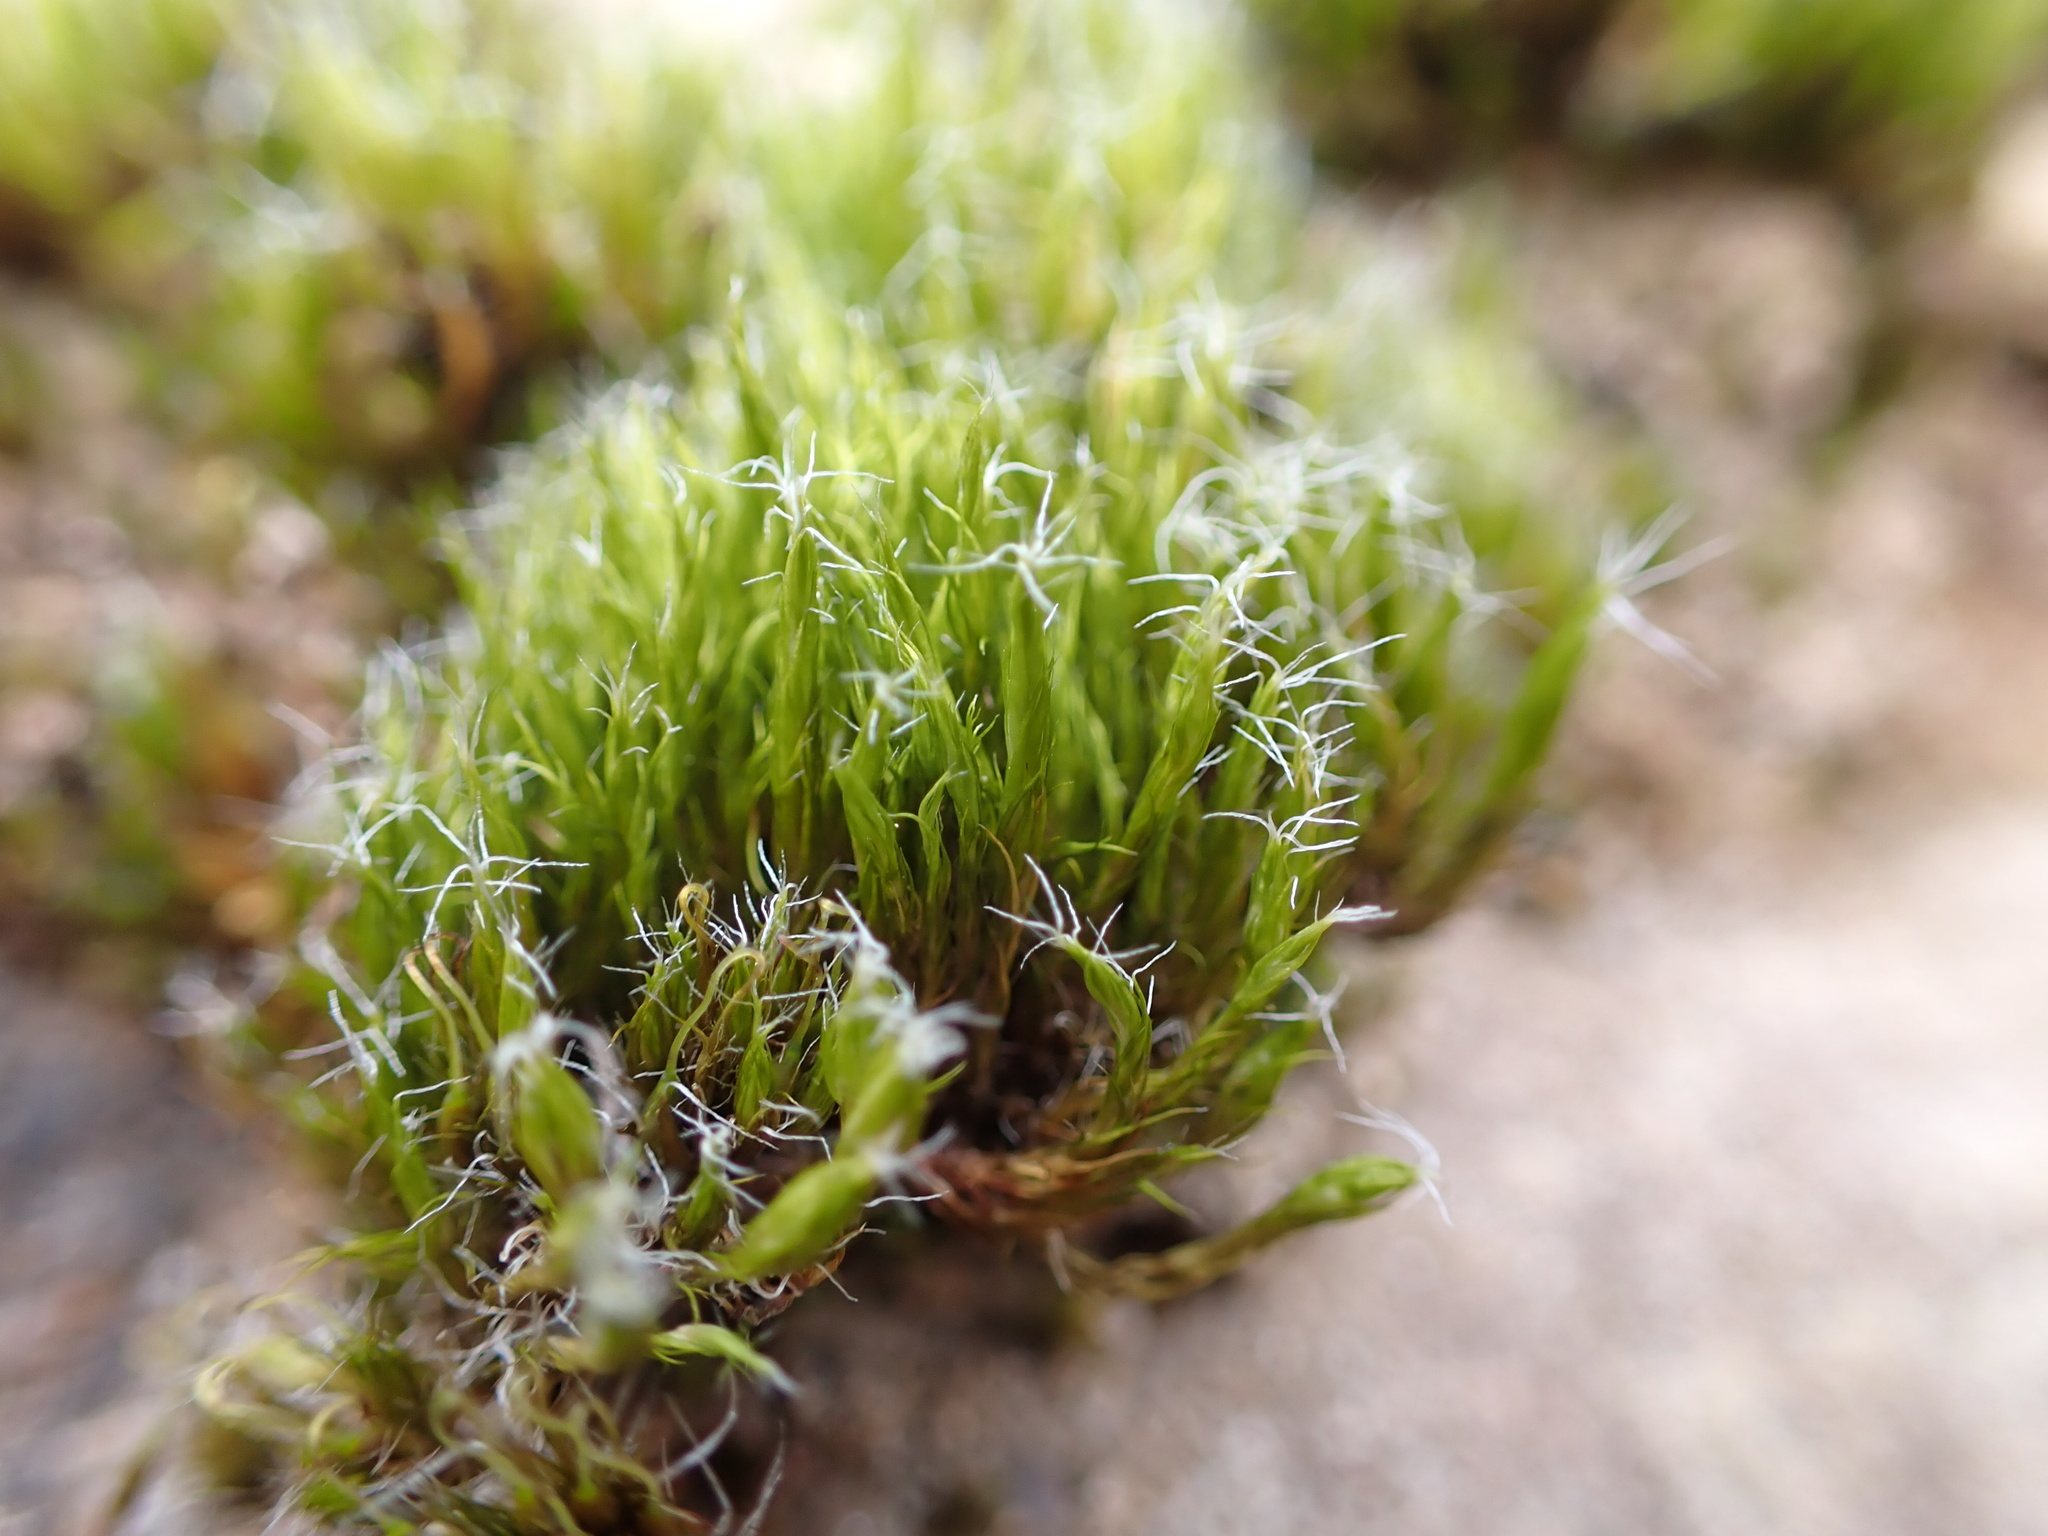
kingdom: Plantae
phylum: Bryophyta
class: Bryopsida
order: Dicranales
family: Leucobryaceae
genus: Campylopus
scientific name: Campylopus introflexus
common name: Heath star moss
